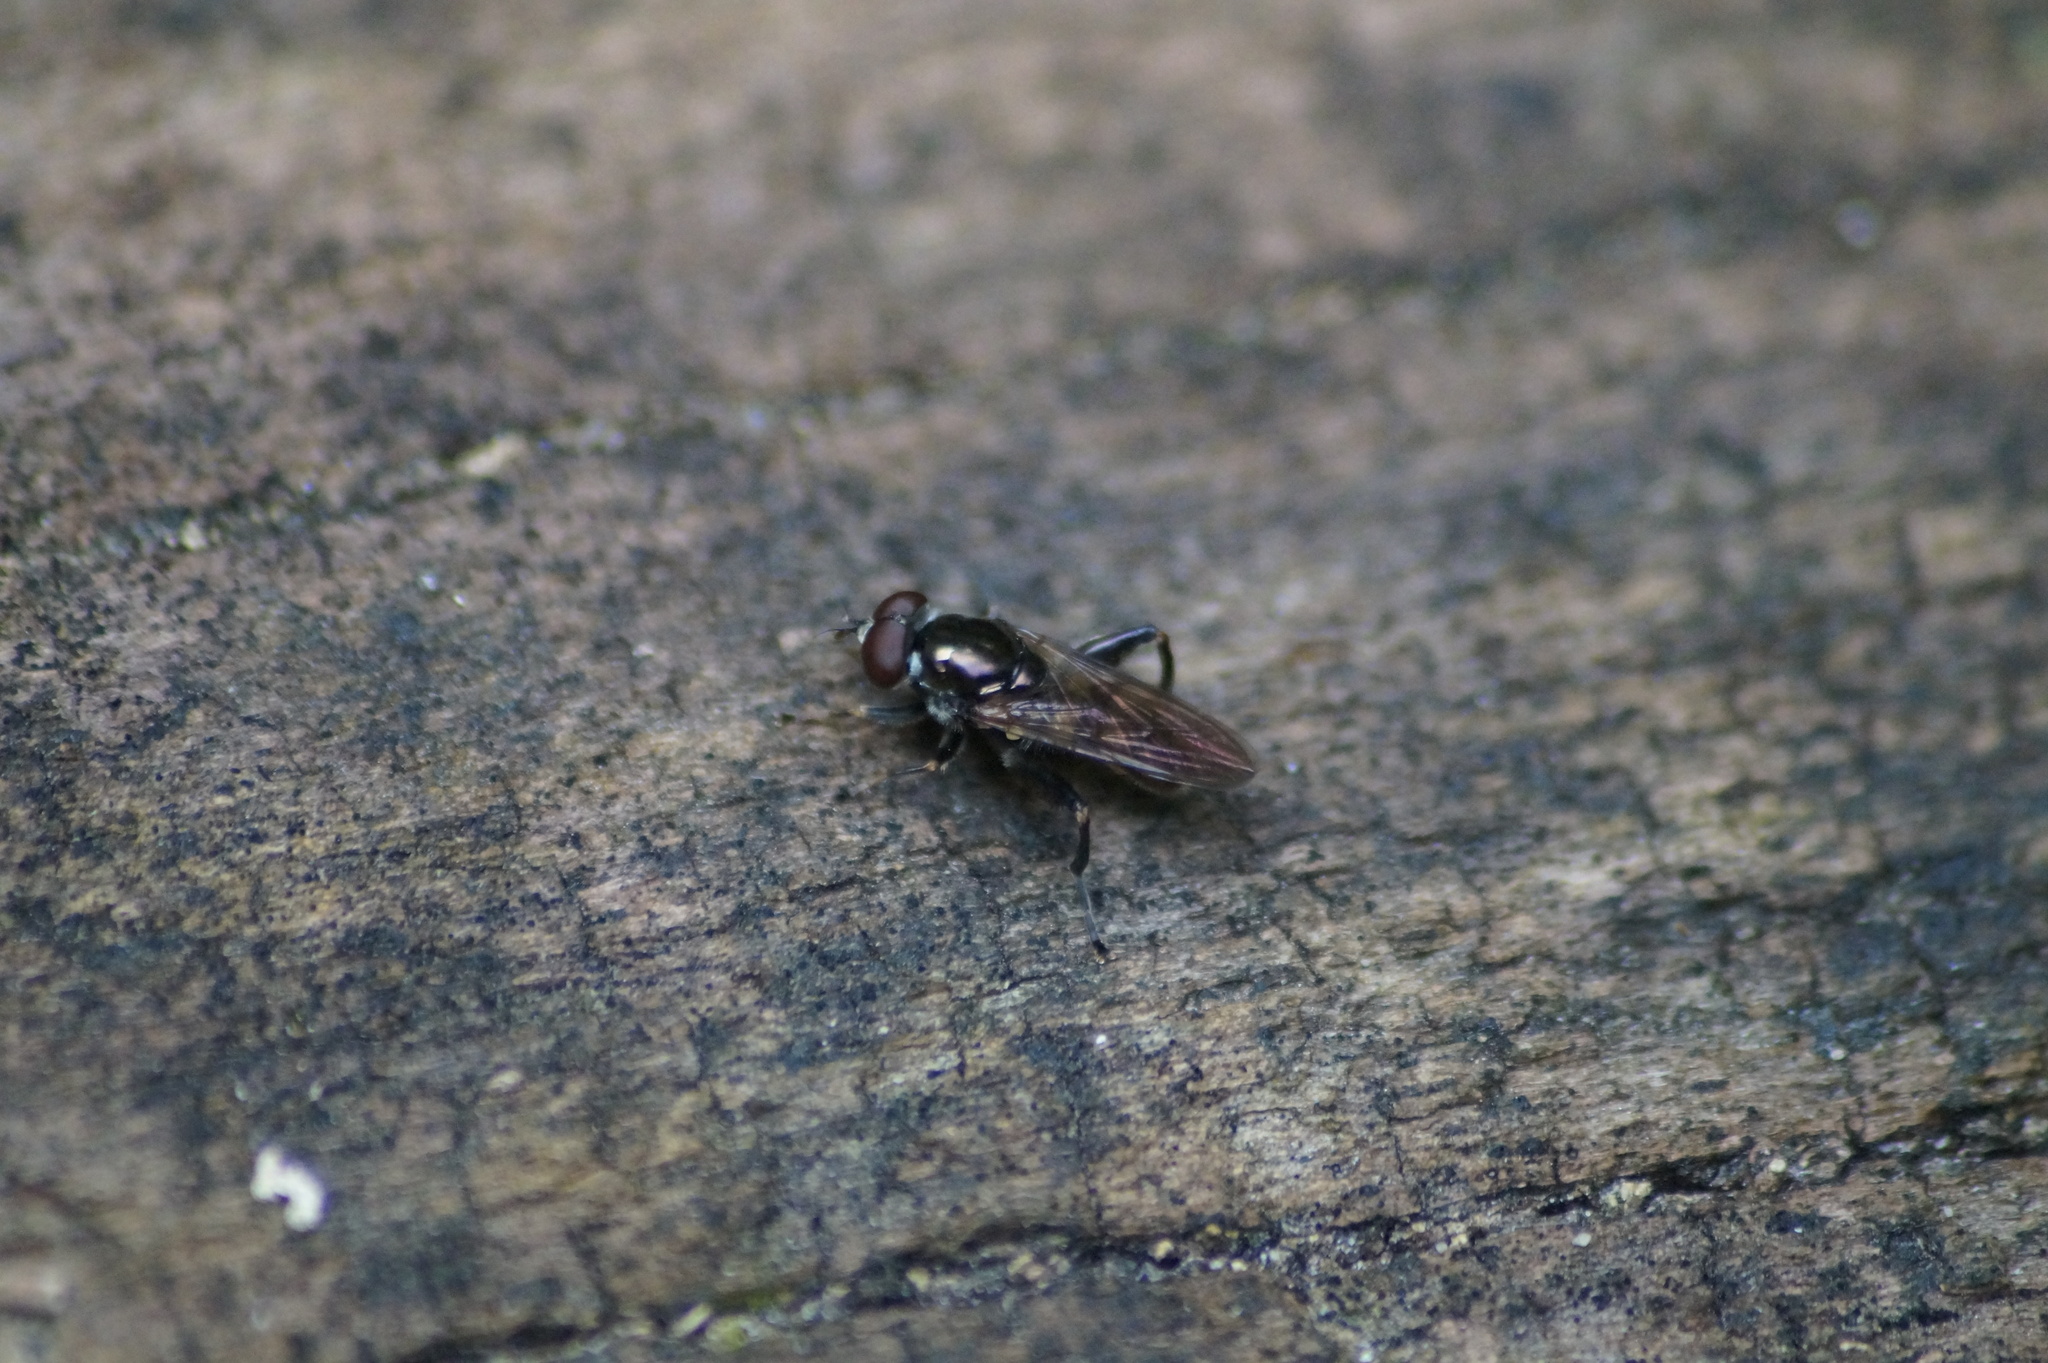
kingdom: Animalia
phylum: Arthropoda
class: Insecta
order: Diptera
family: Syrphidae
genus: Chalcosyrphus
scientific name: Chalcosyrphus nemorum
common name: Dusky-banded forest fly
